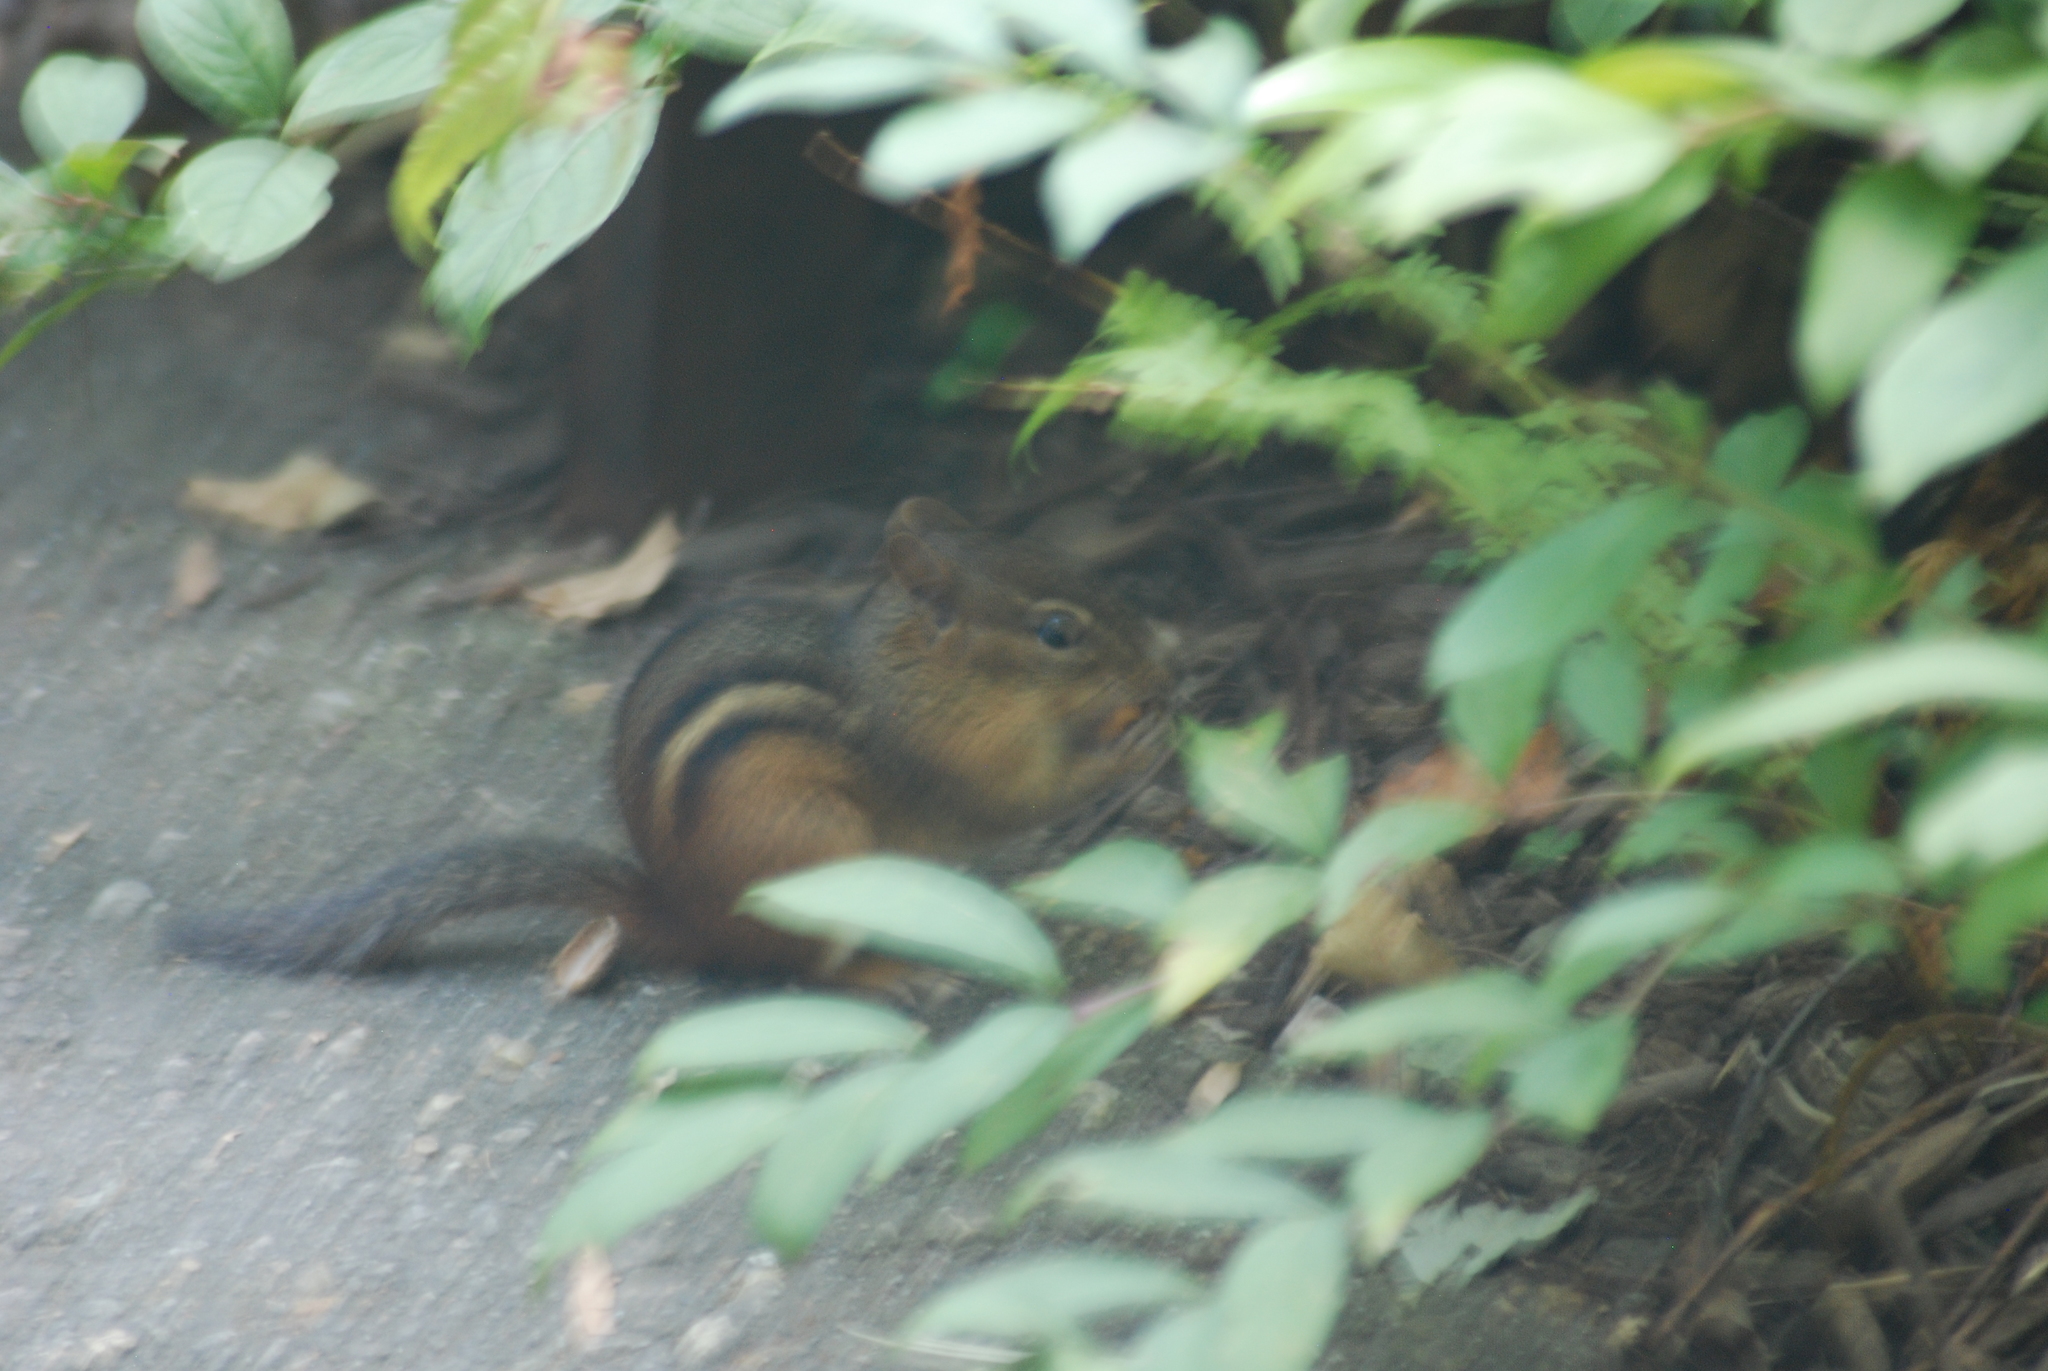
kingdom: Animalia
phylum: Chordata
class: Mammalia
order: Rodentia
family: Sciuridae
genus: Tamias
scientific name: Tamias striatus
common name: Eastern chipmunk
